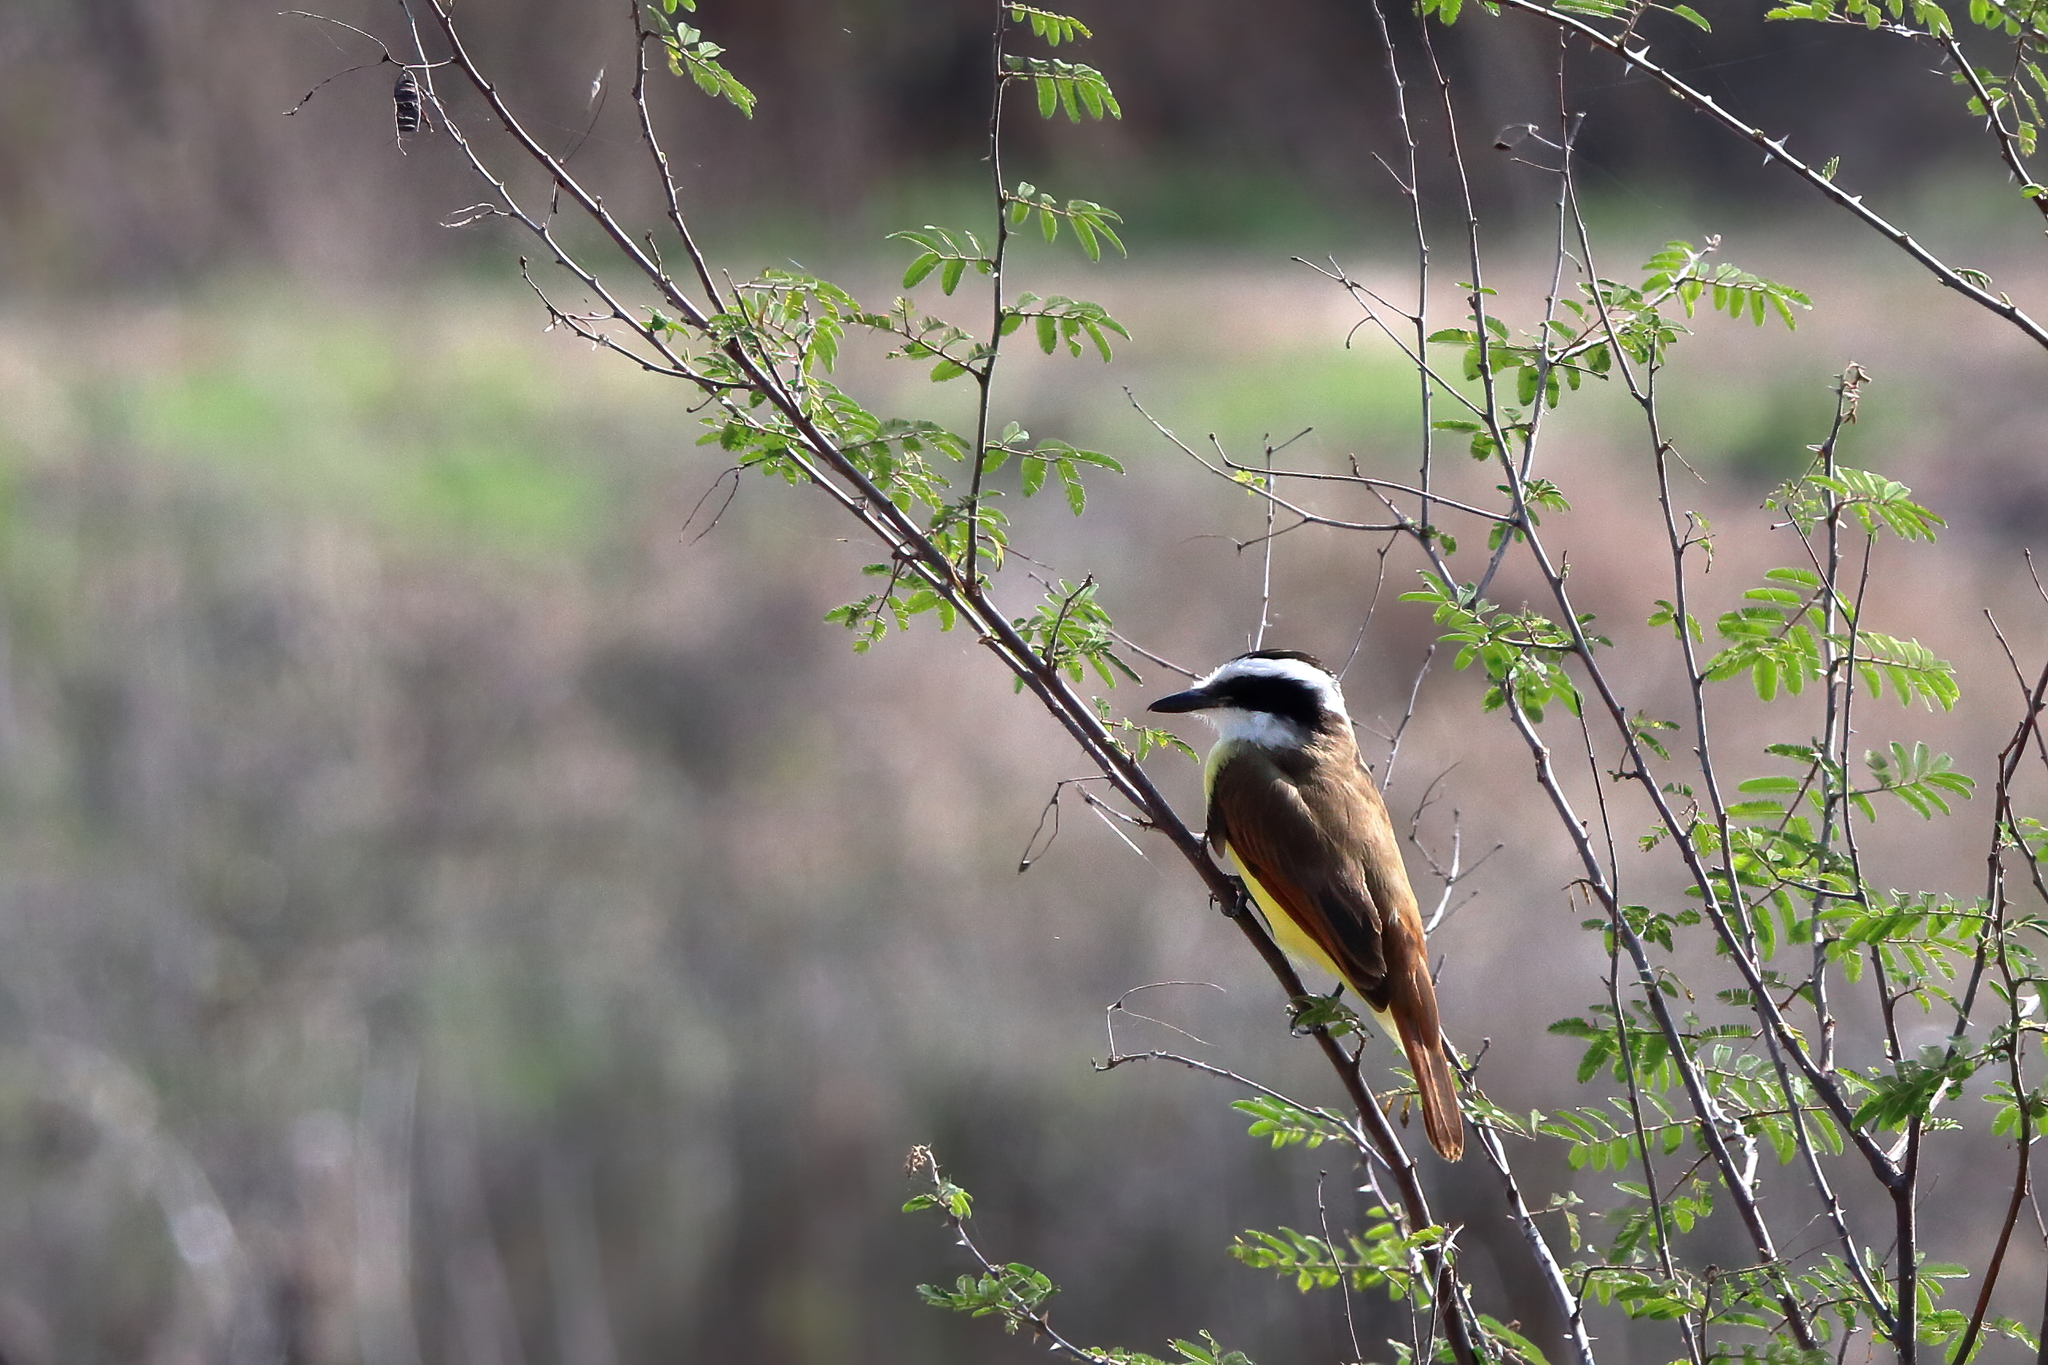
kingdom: Animalia
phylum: Chordata
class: Aves
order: Passeriformes
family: Tyrannidae
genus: Pitangus
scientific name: Pitangus sulphuratus
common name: Great kiskadee
